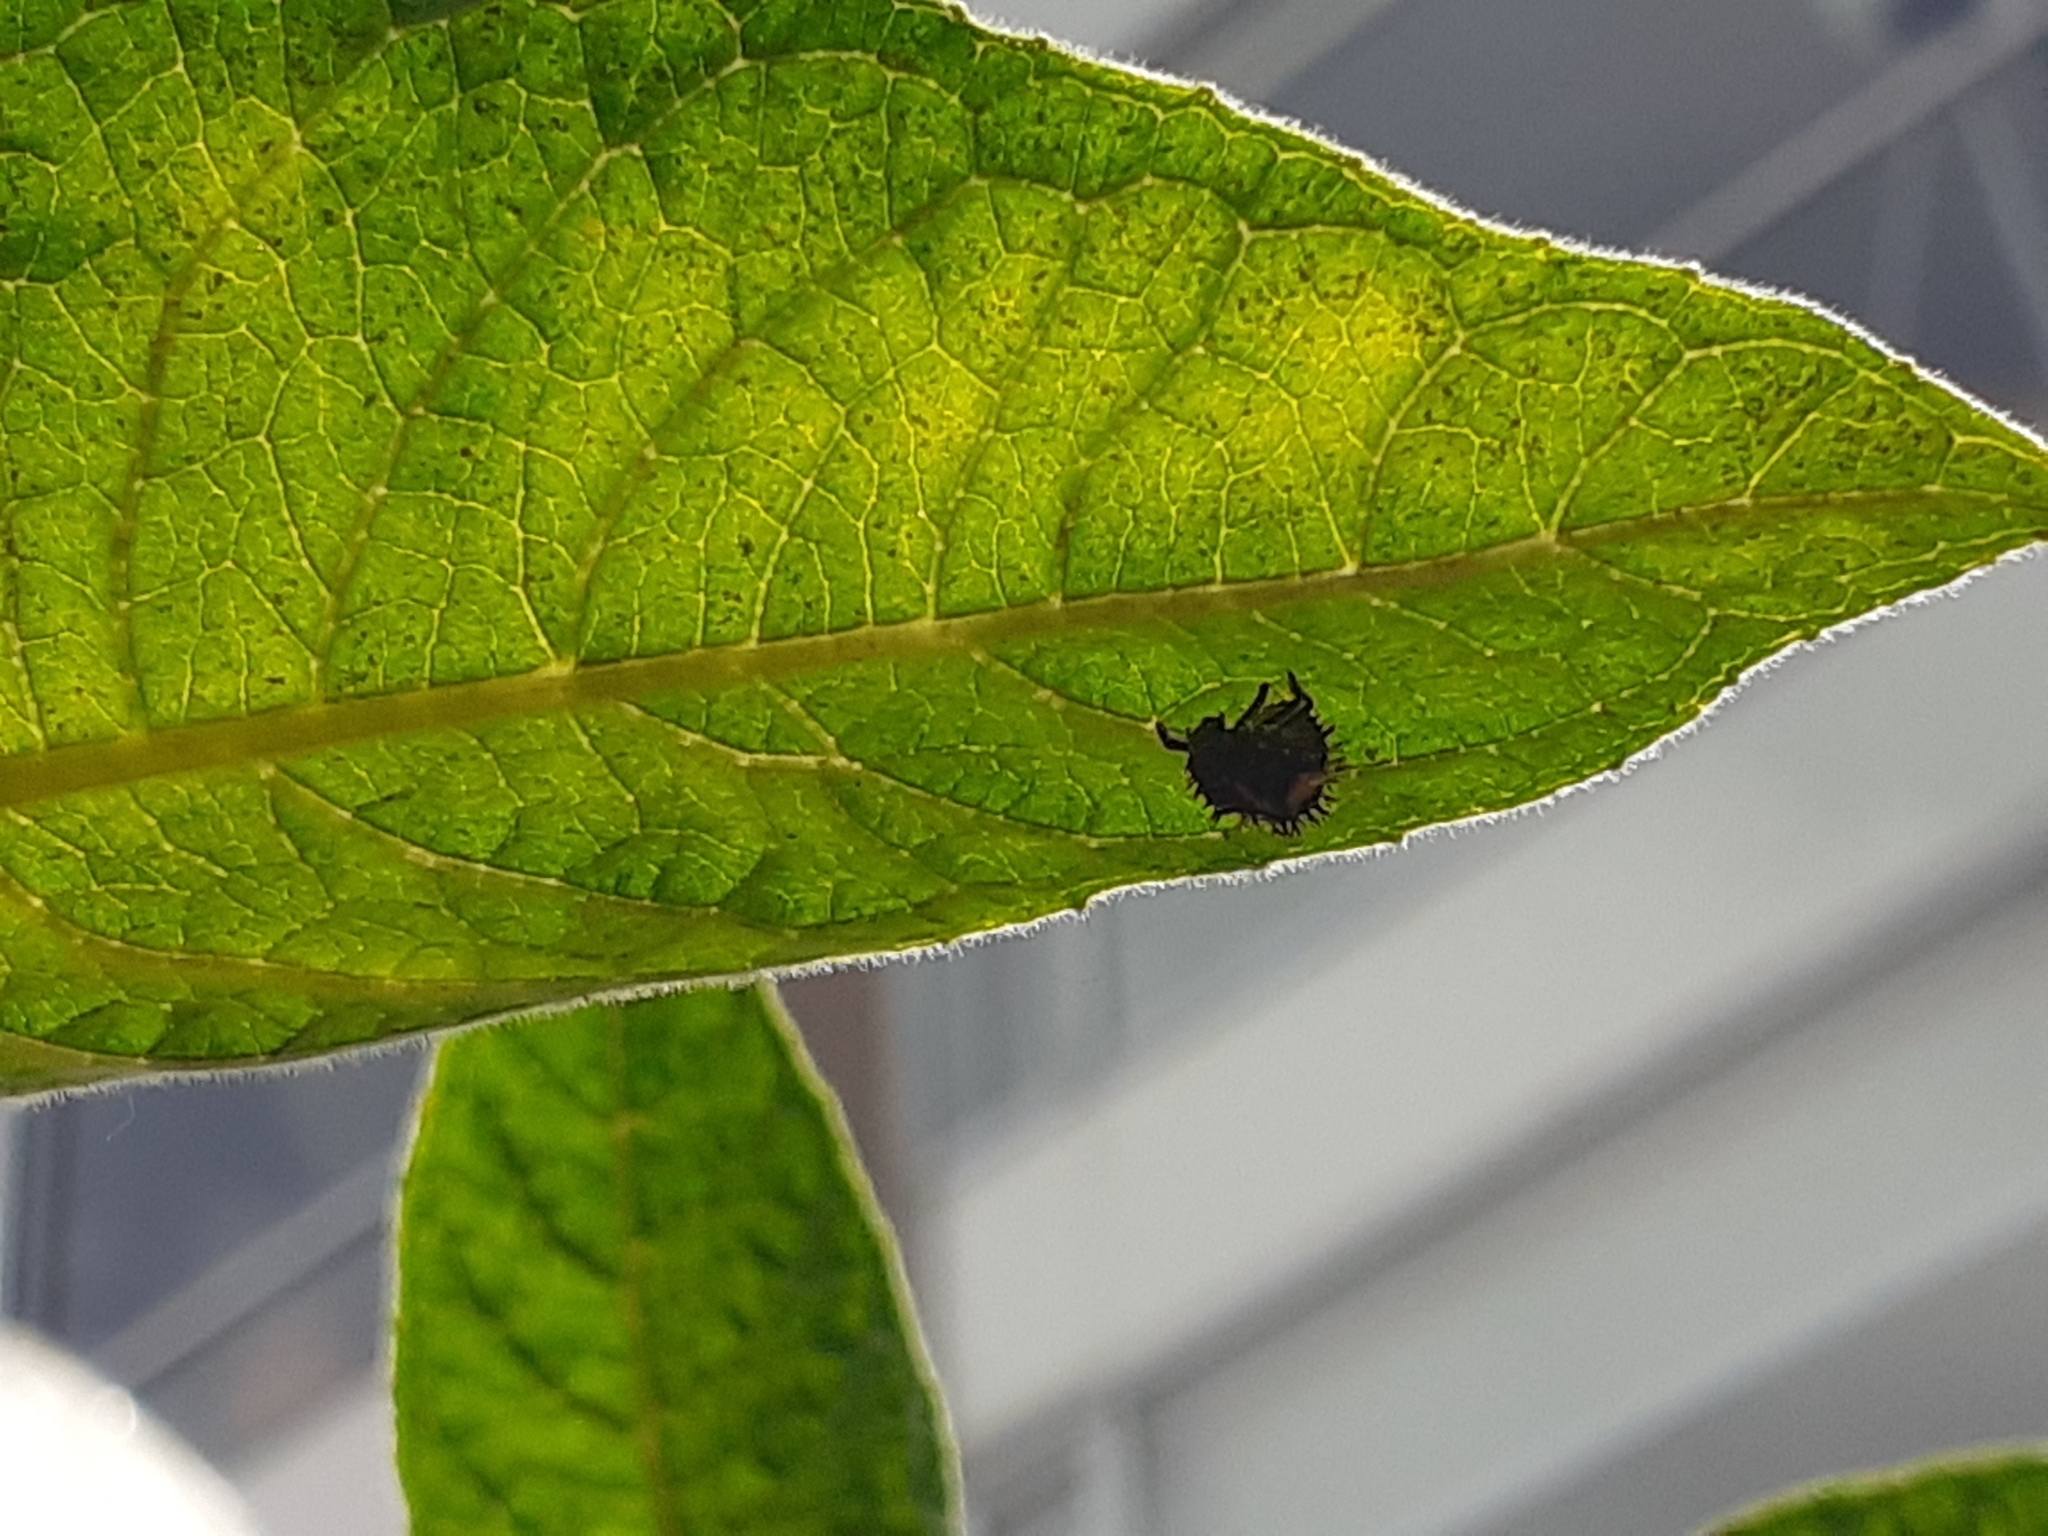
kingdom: Animalia
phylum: Arthropoda
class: Insecta
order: Coleoptera
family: Coccinellidae
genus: Harmonia
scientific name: Harmonia axyridis
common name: Harlequin ladybird
